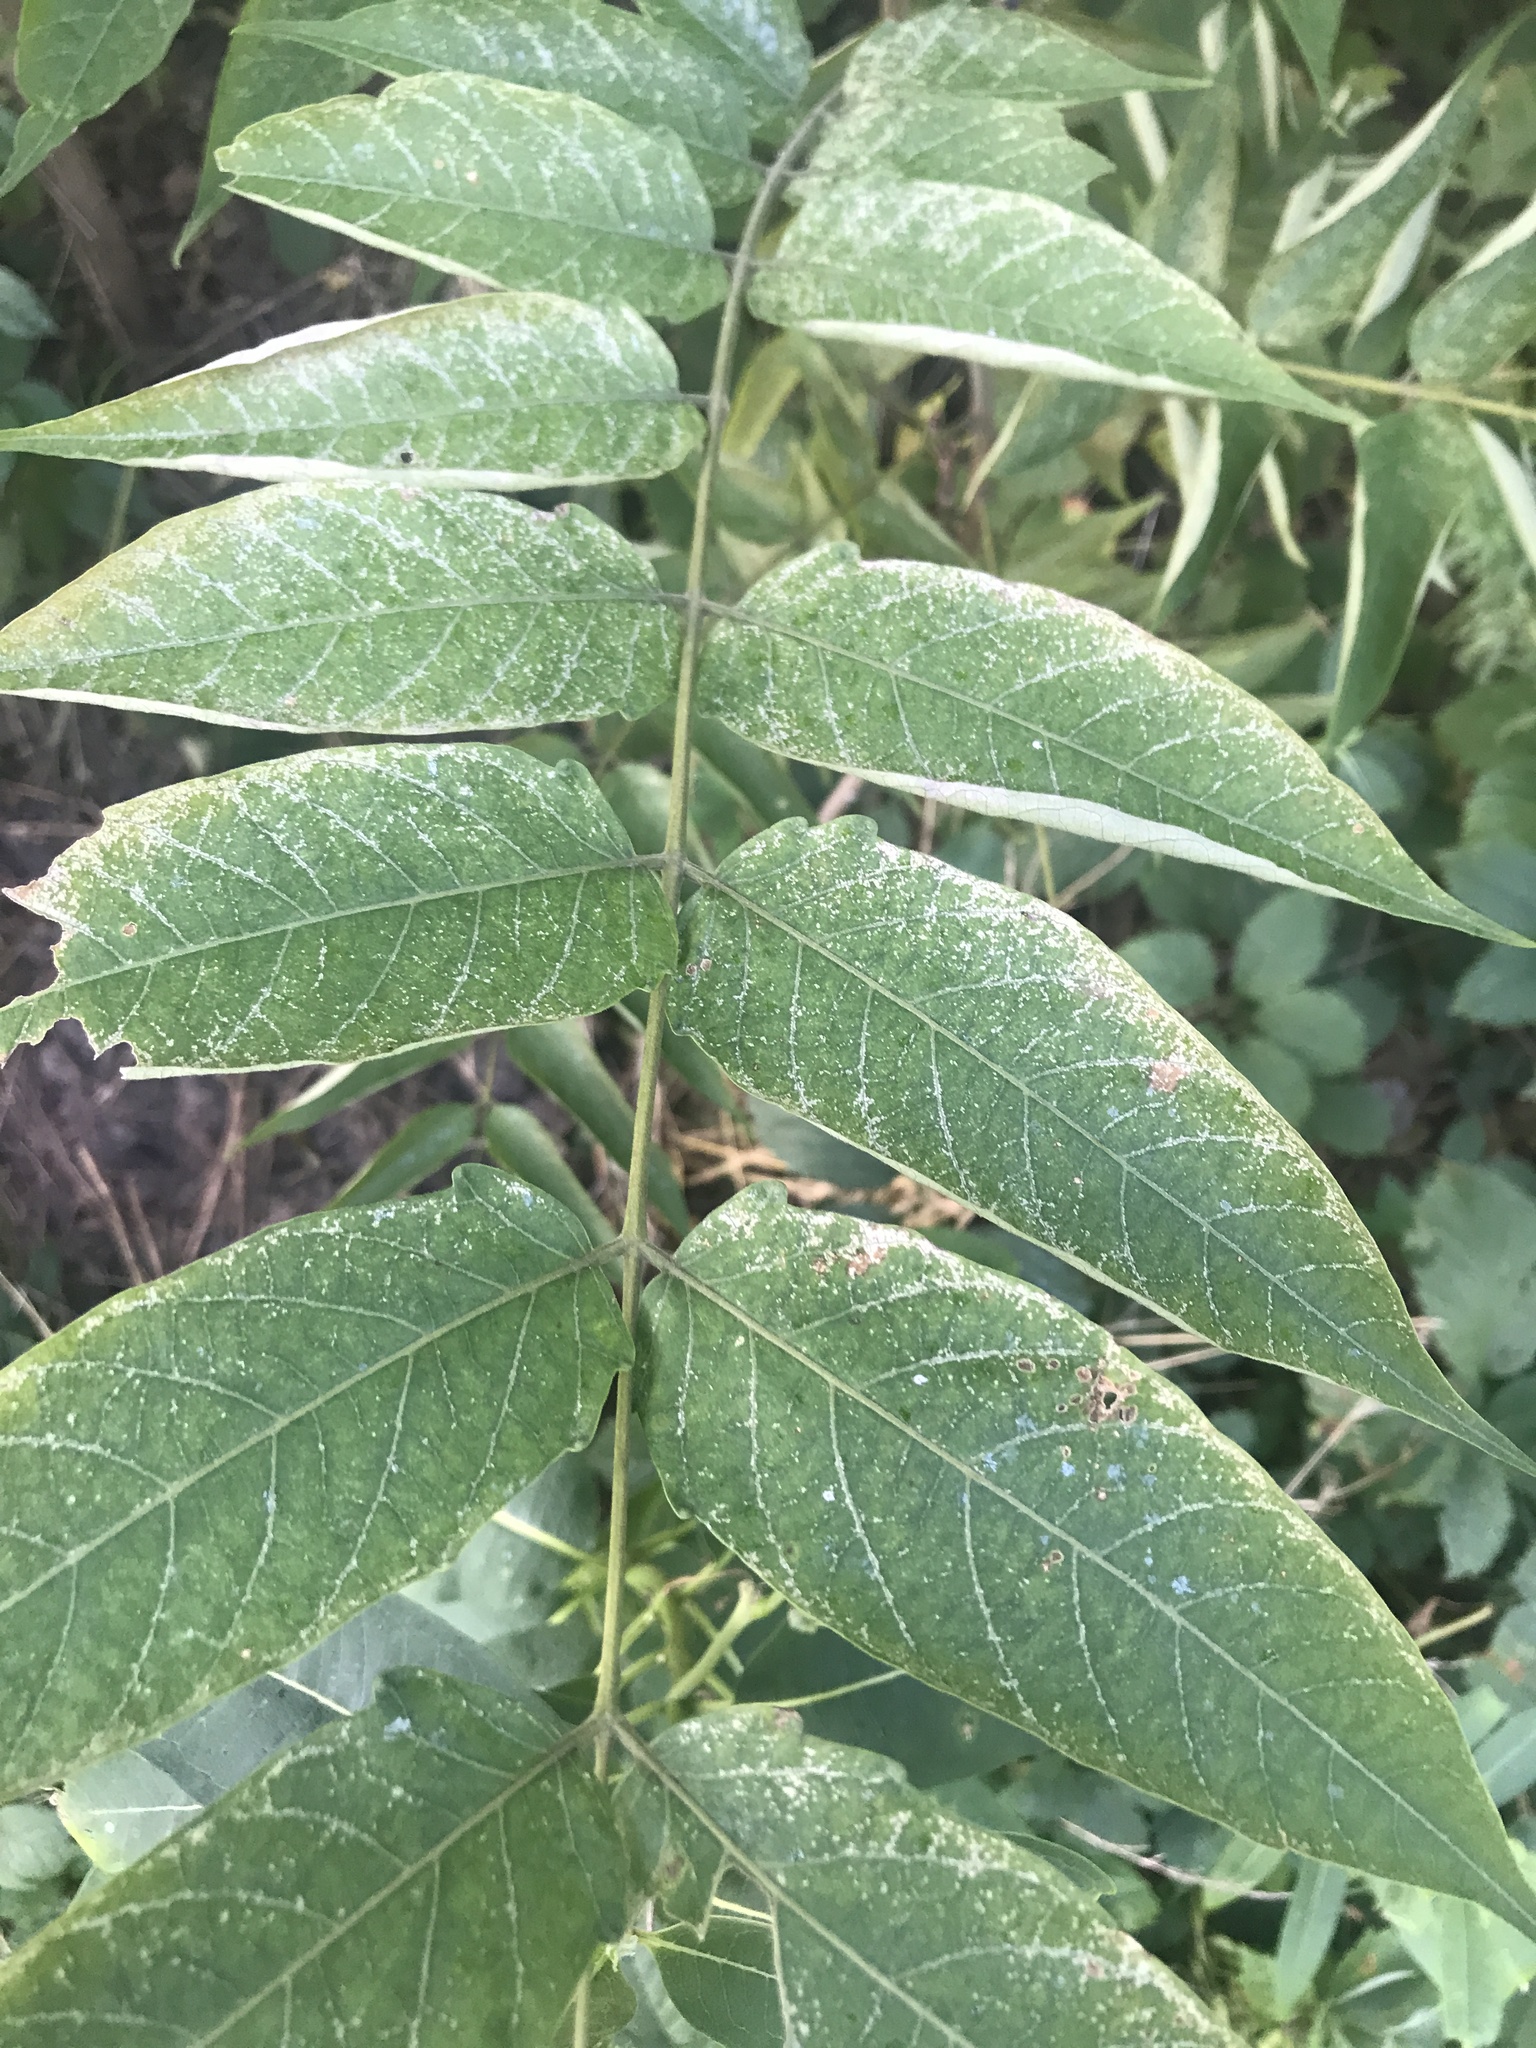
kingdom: Plantae
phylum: Tracheophyta
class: Magnoliopsida
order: Sapindales
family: Simaroubaceae
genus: Ailanthus
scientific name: Ailanthus altissima
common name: Tree-of-heaven
